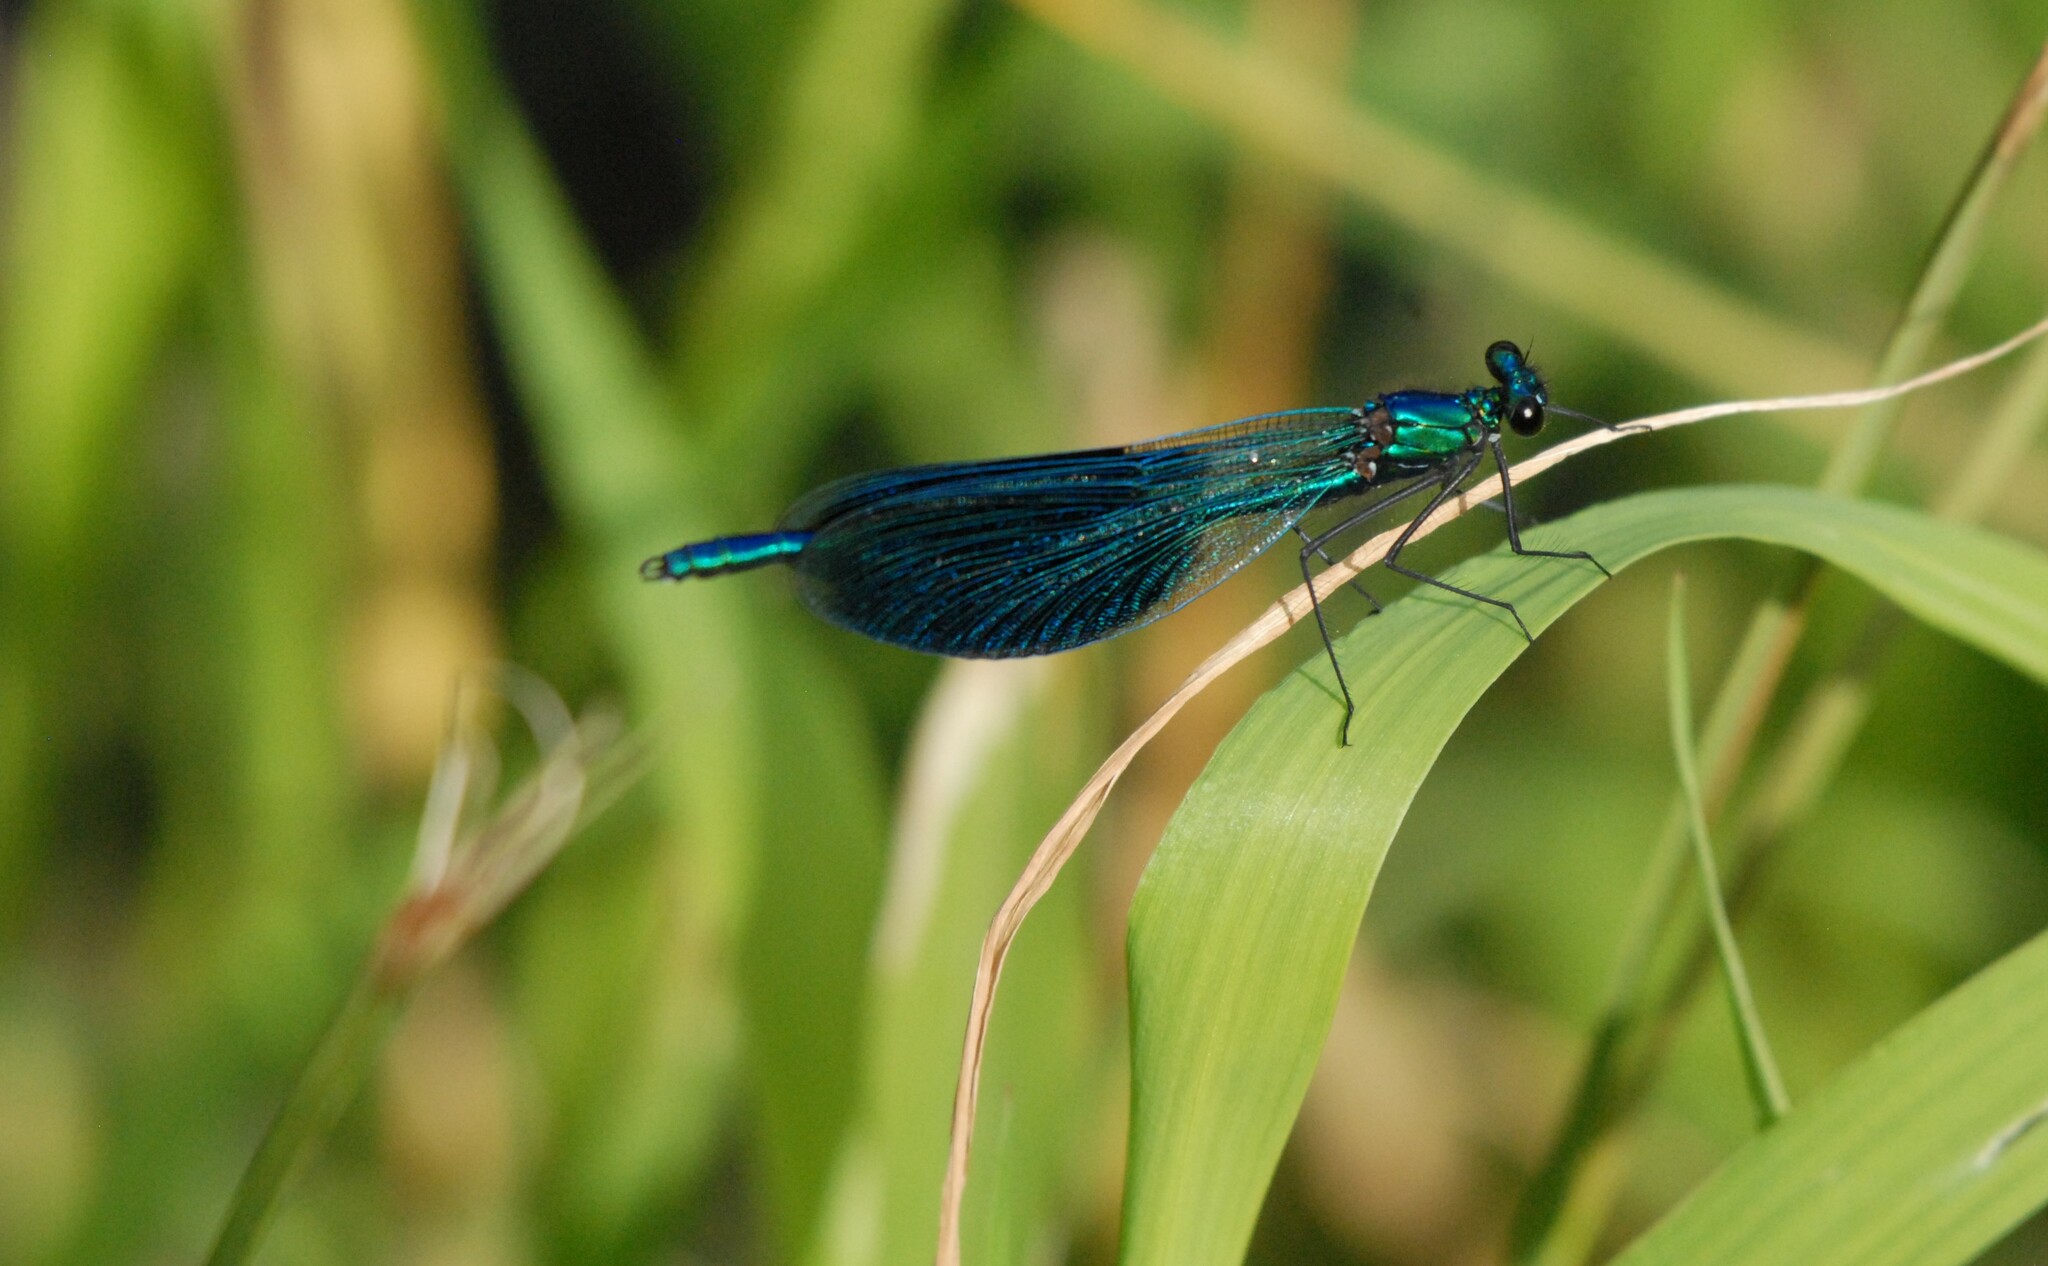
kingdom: Animalia
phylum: Arthropoda
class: Insecta
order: Odonata
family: Calopterygidae
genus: Calopteryx
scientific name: Calopteryx splendens
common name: Banded demoiselle
